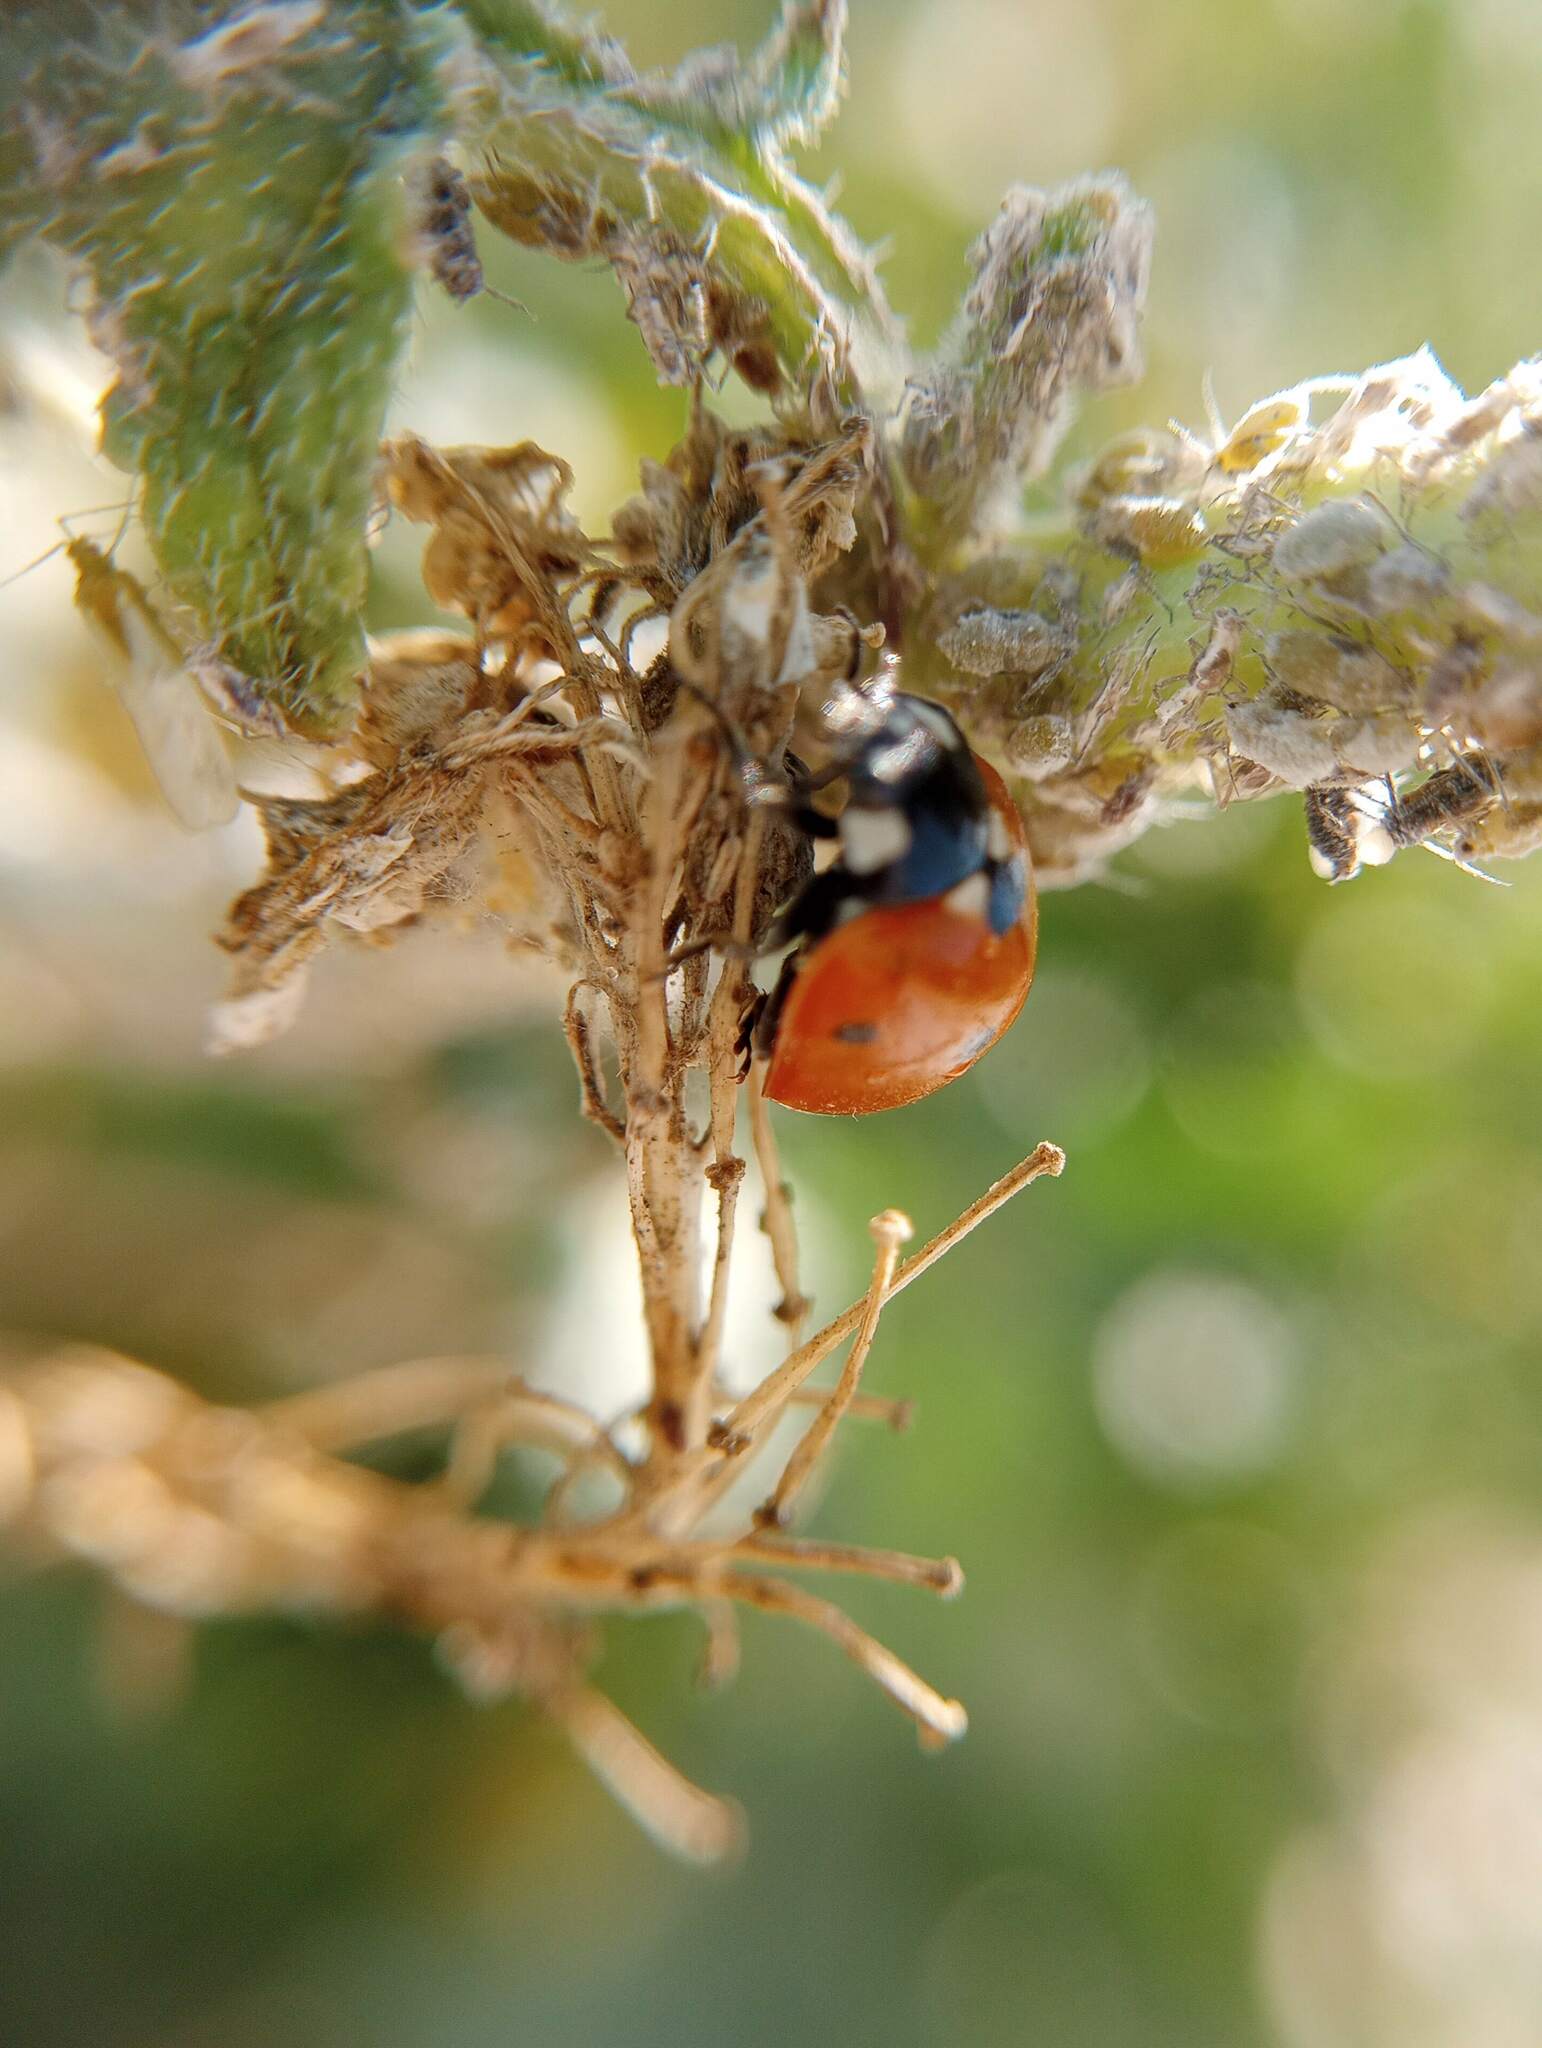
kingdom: Animalia
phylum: Arthropoda
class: Insecta
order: Coleoptera
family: Coccinellidae
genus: Coccinella
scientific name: Coccinella septempunctata
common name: Sevenspotted lady beetle
